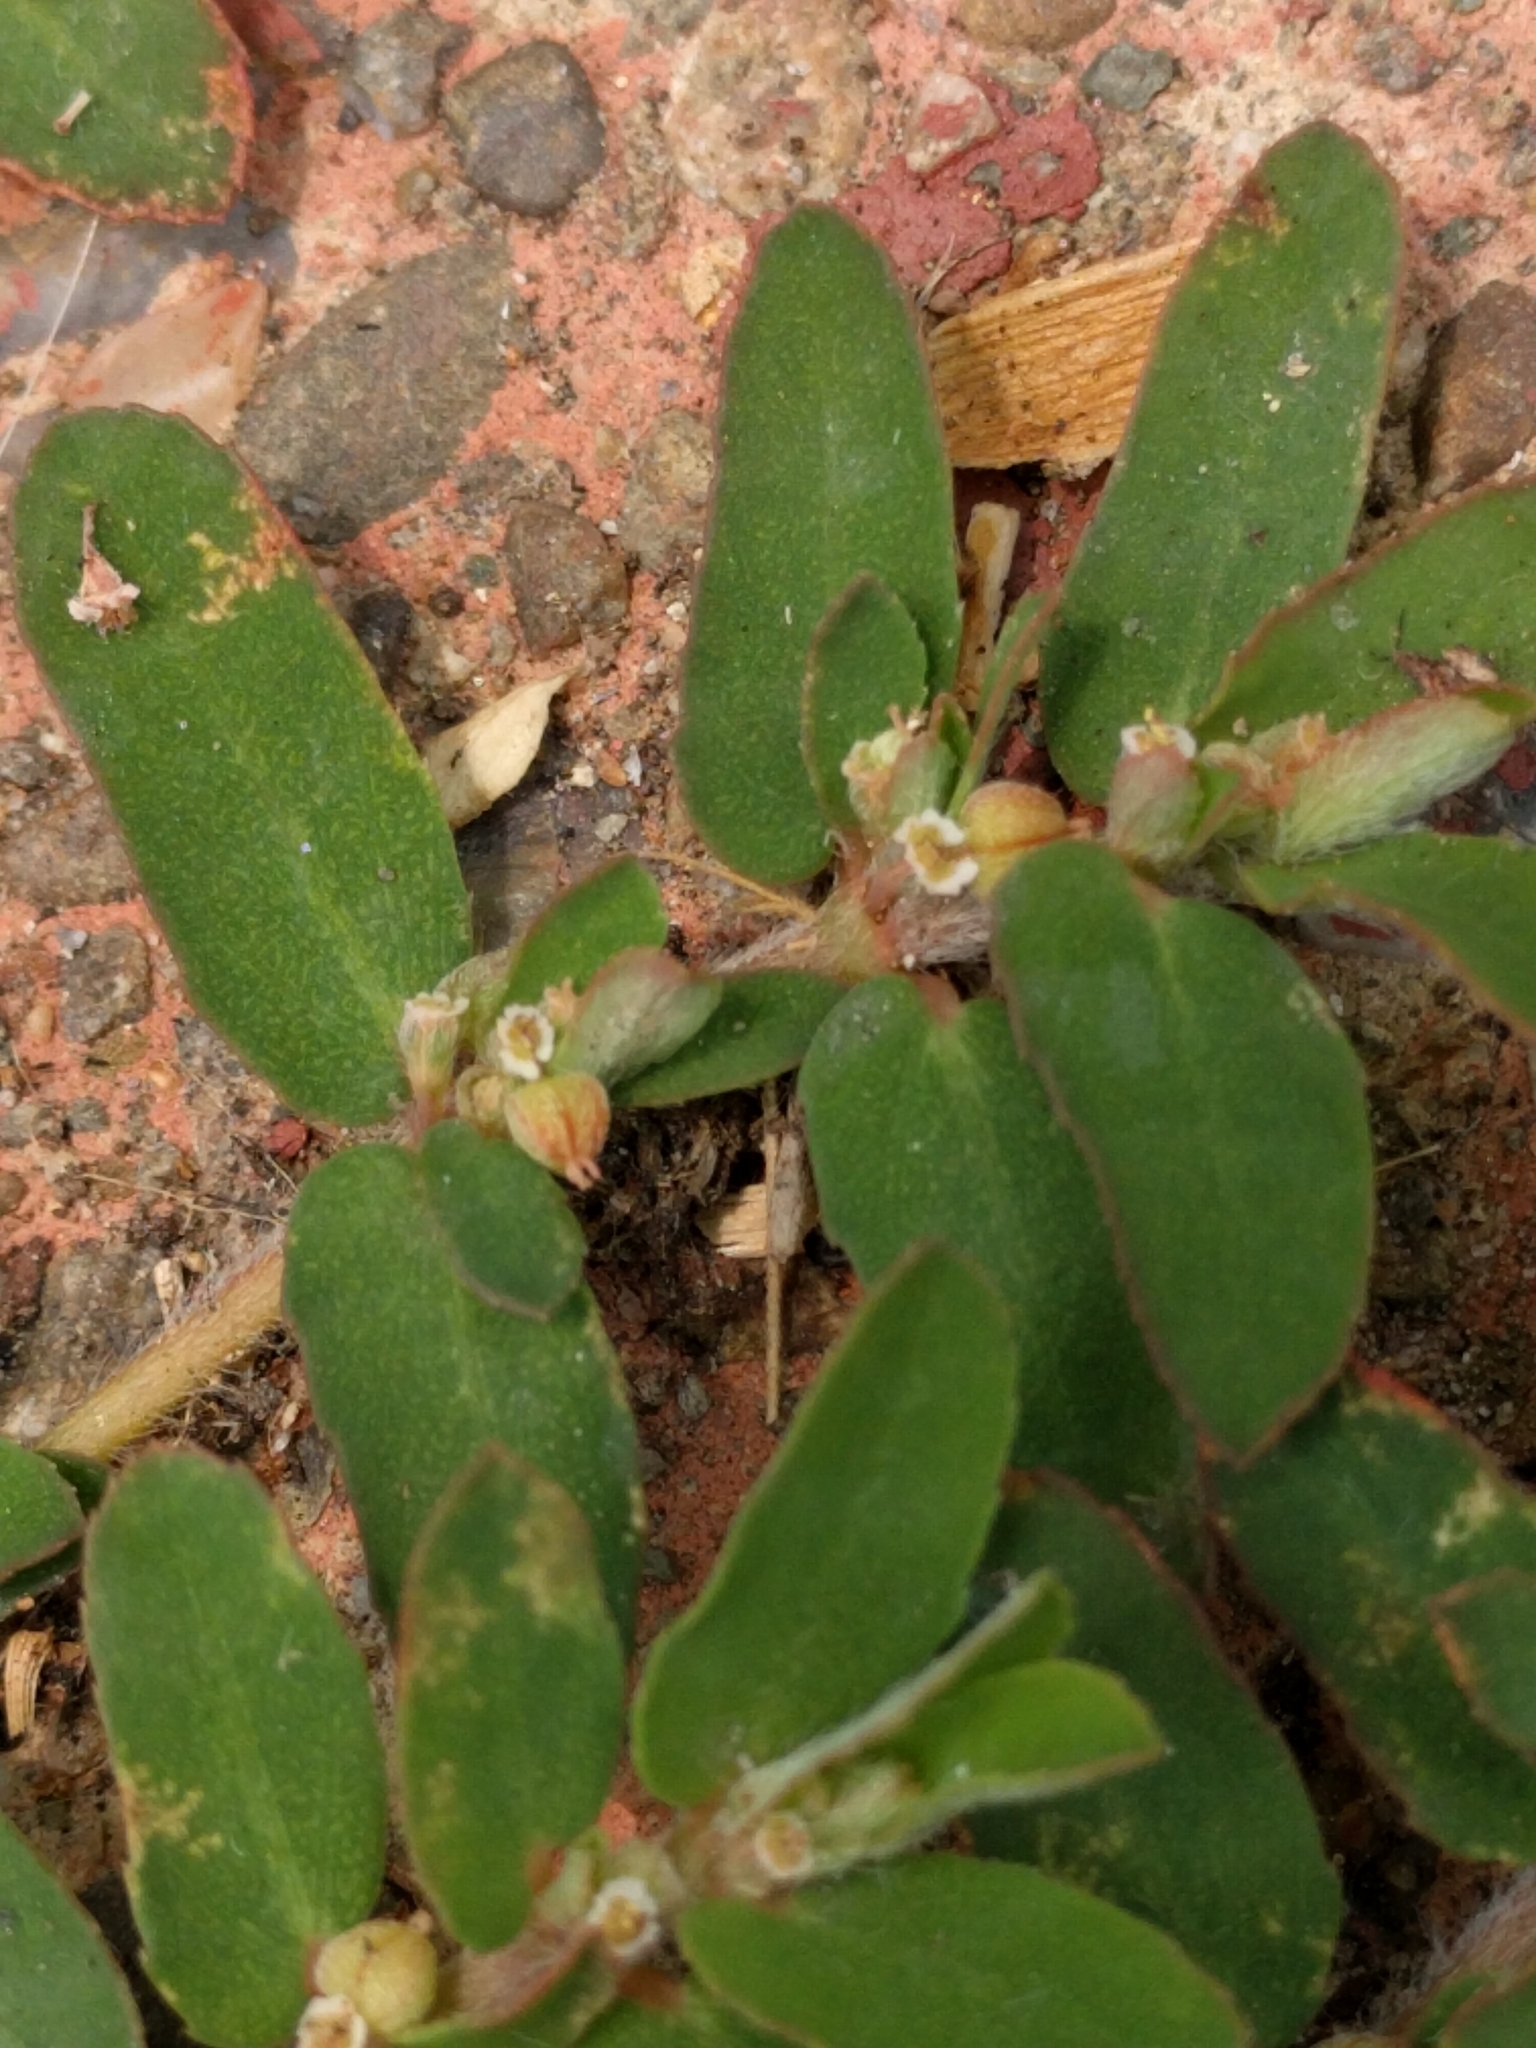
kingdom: Plantae
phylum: Tracheophyta
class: Magnoliopsida
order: Malpighiales
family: Euphorbiaceae
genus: Euphorbia
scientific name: Euphorbia maculata
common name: Spotted spurge
